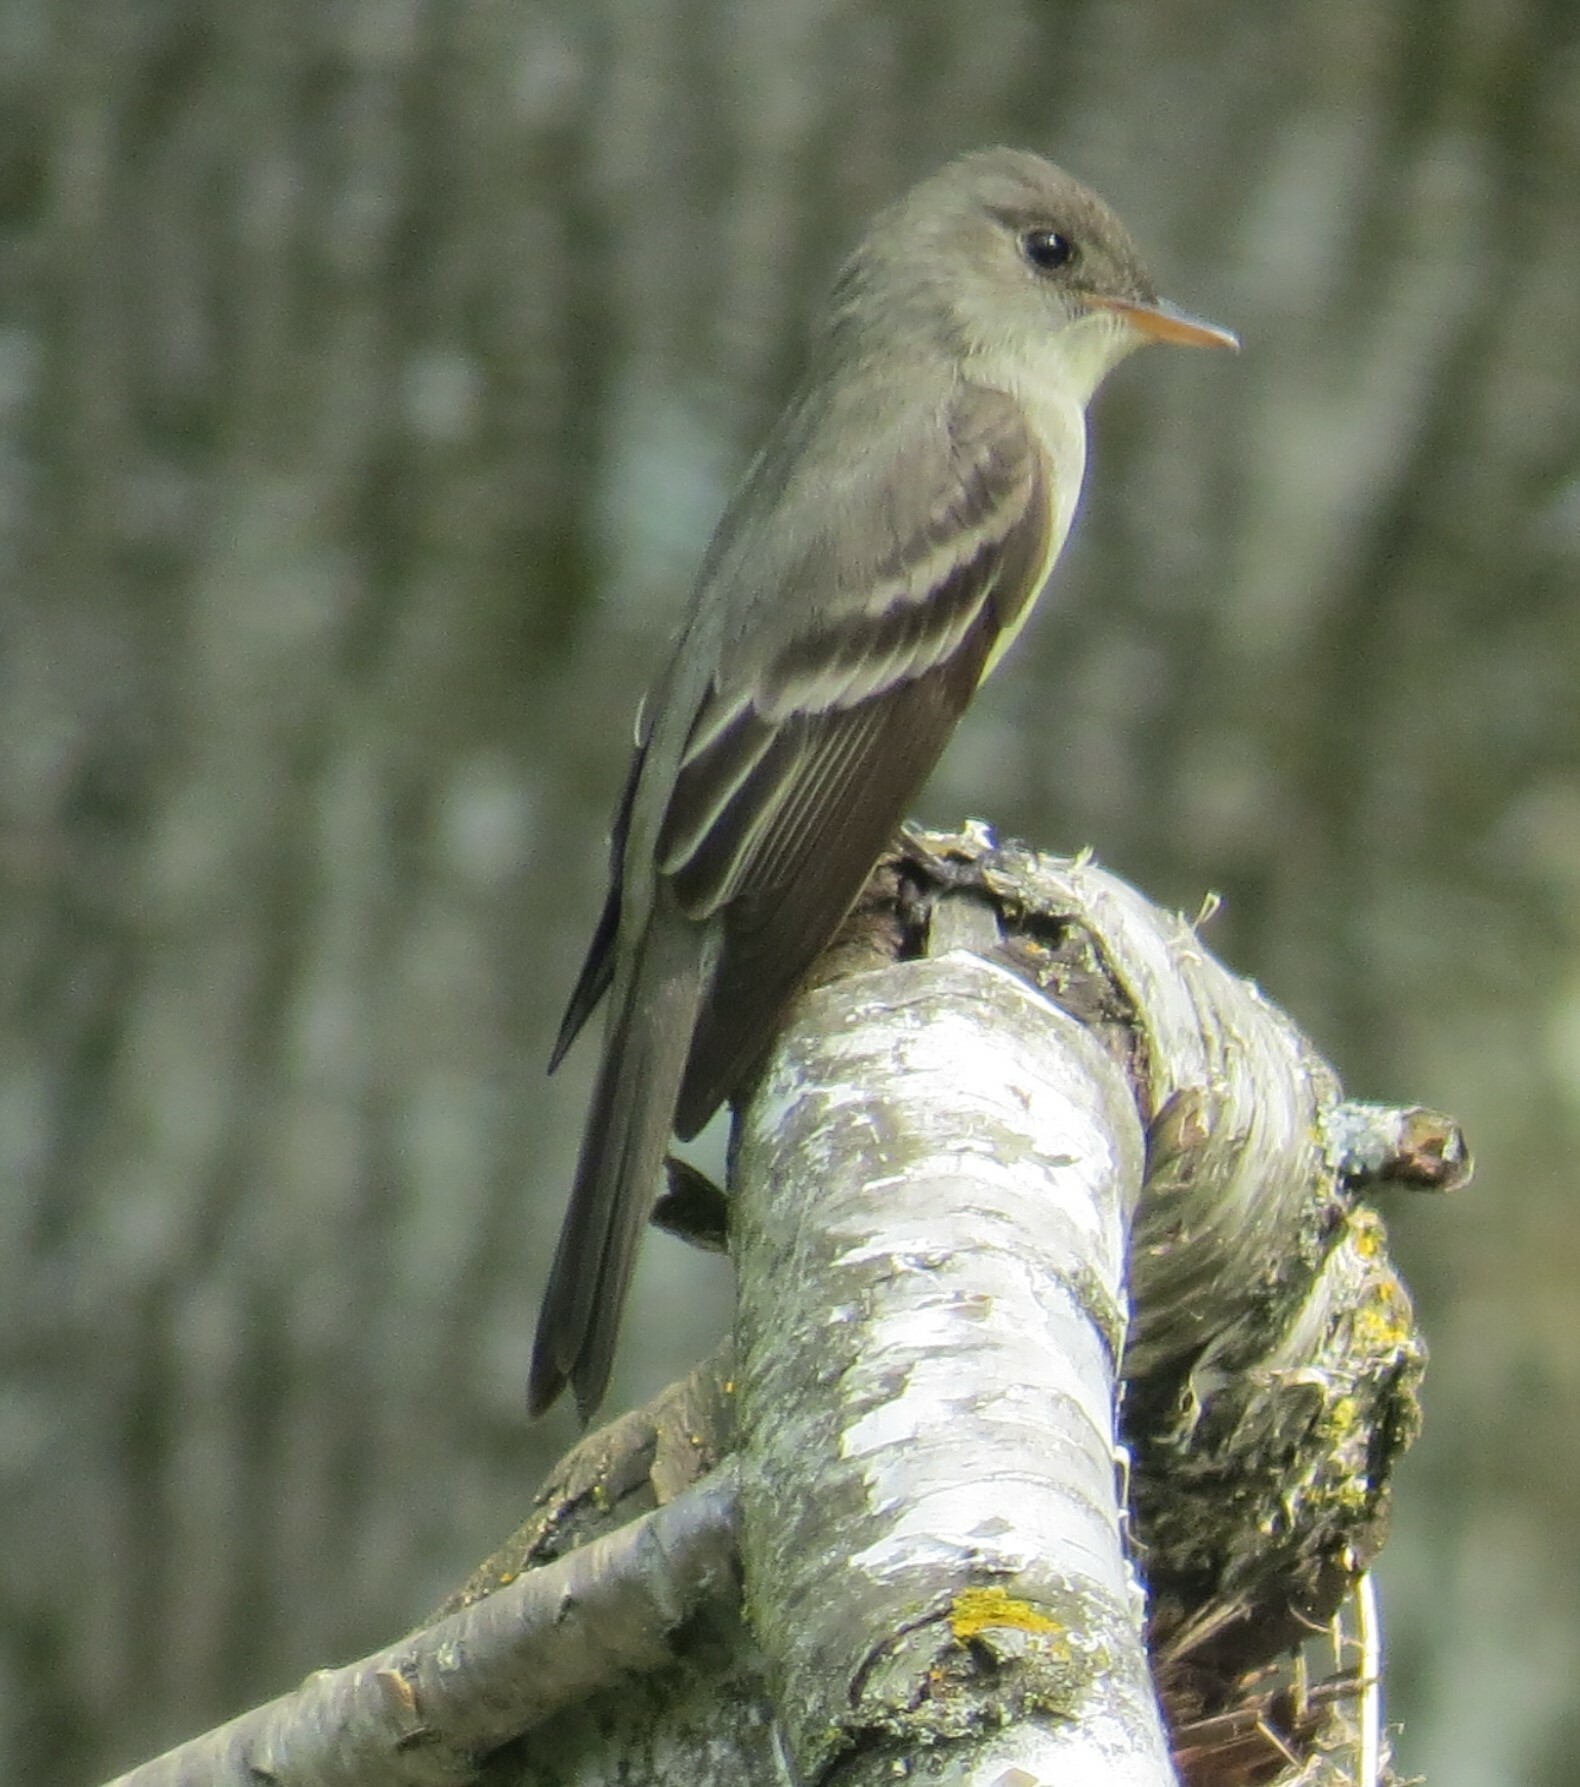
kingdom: Animalia
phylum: Chordata
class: Aves
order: Passeriformes
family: Tyrannidae
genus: Contopus
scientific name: Contopus virens
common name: Eastern wood-pewee
